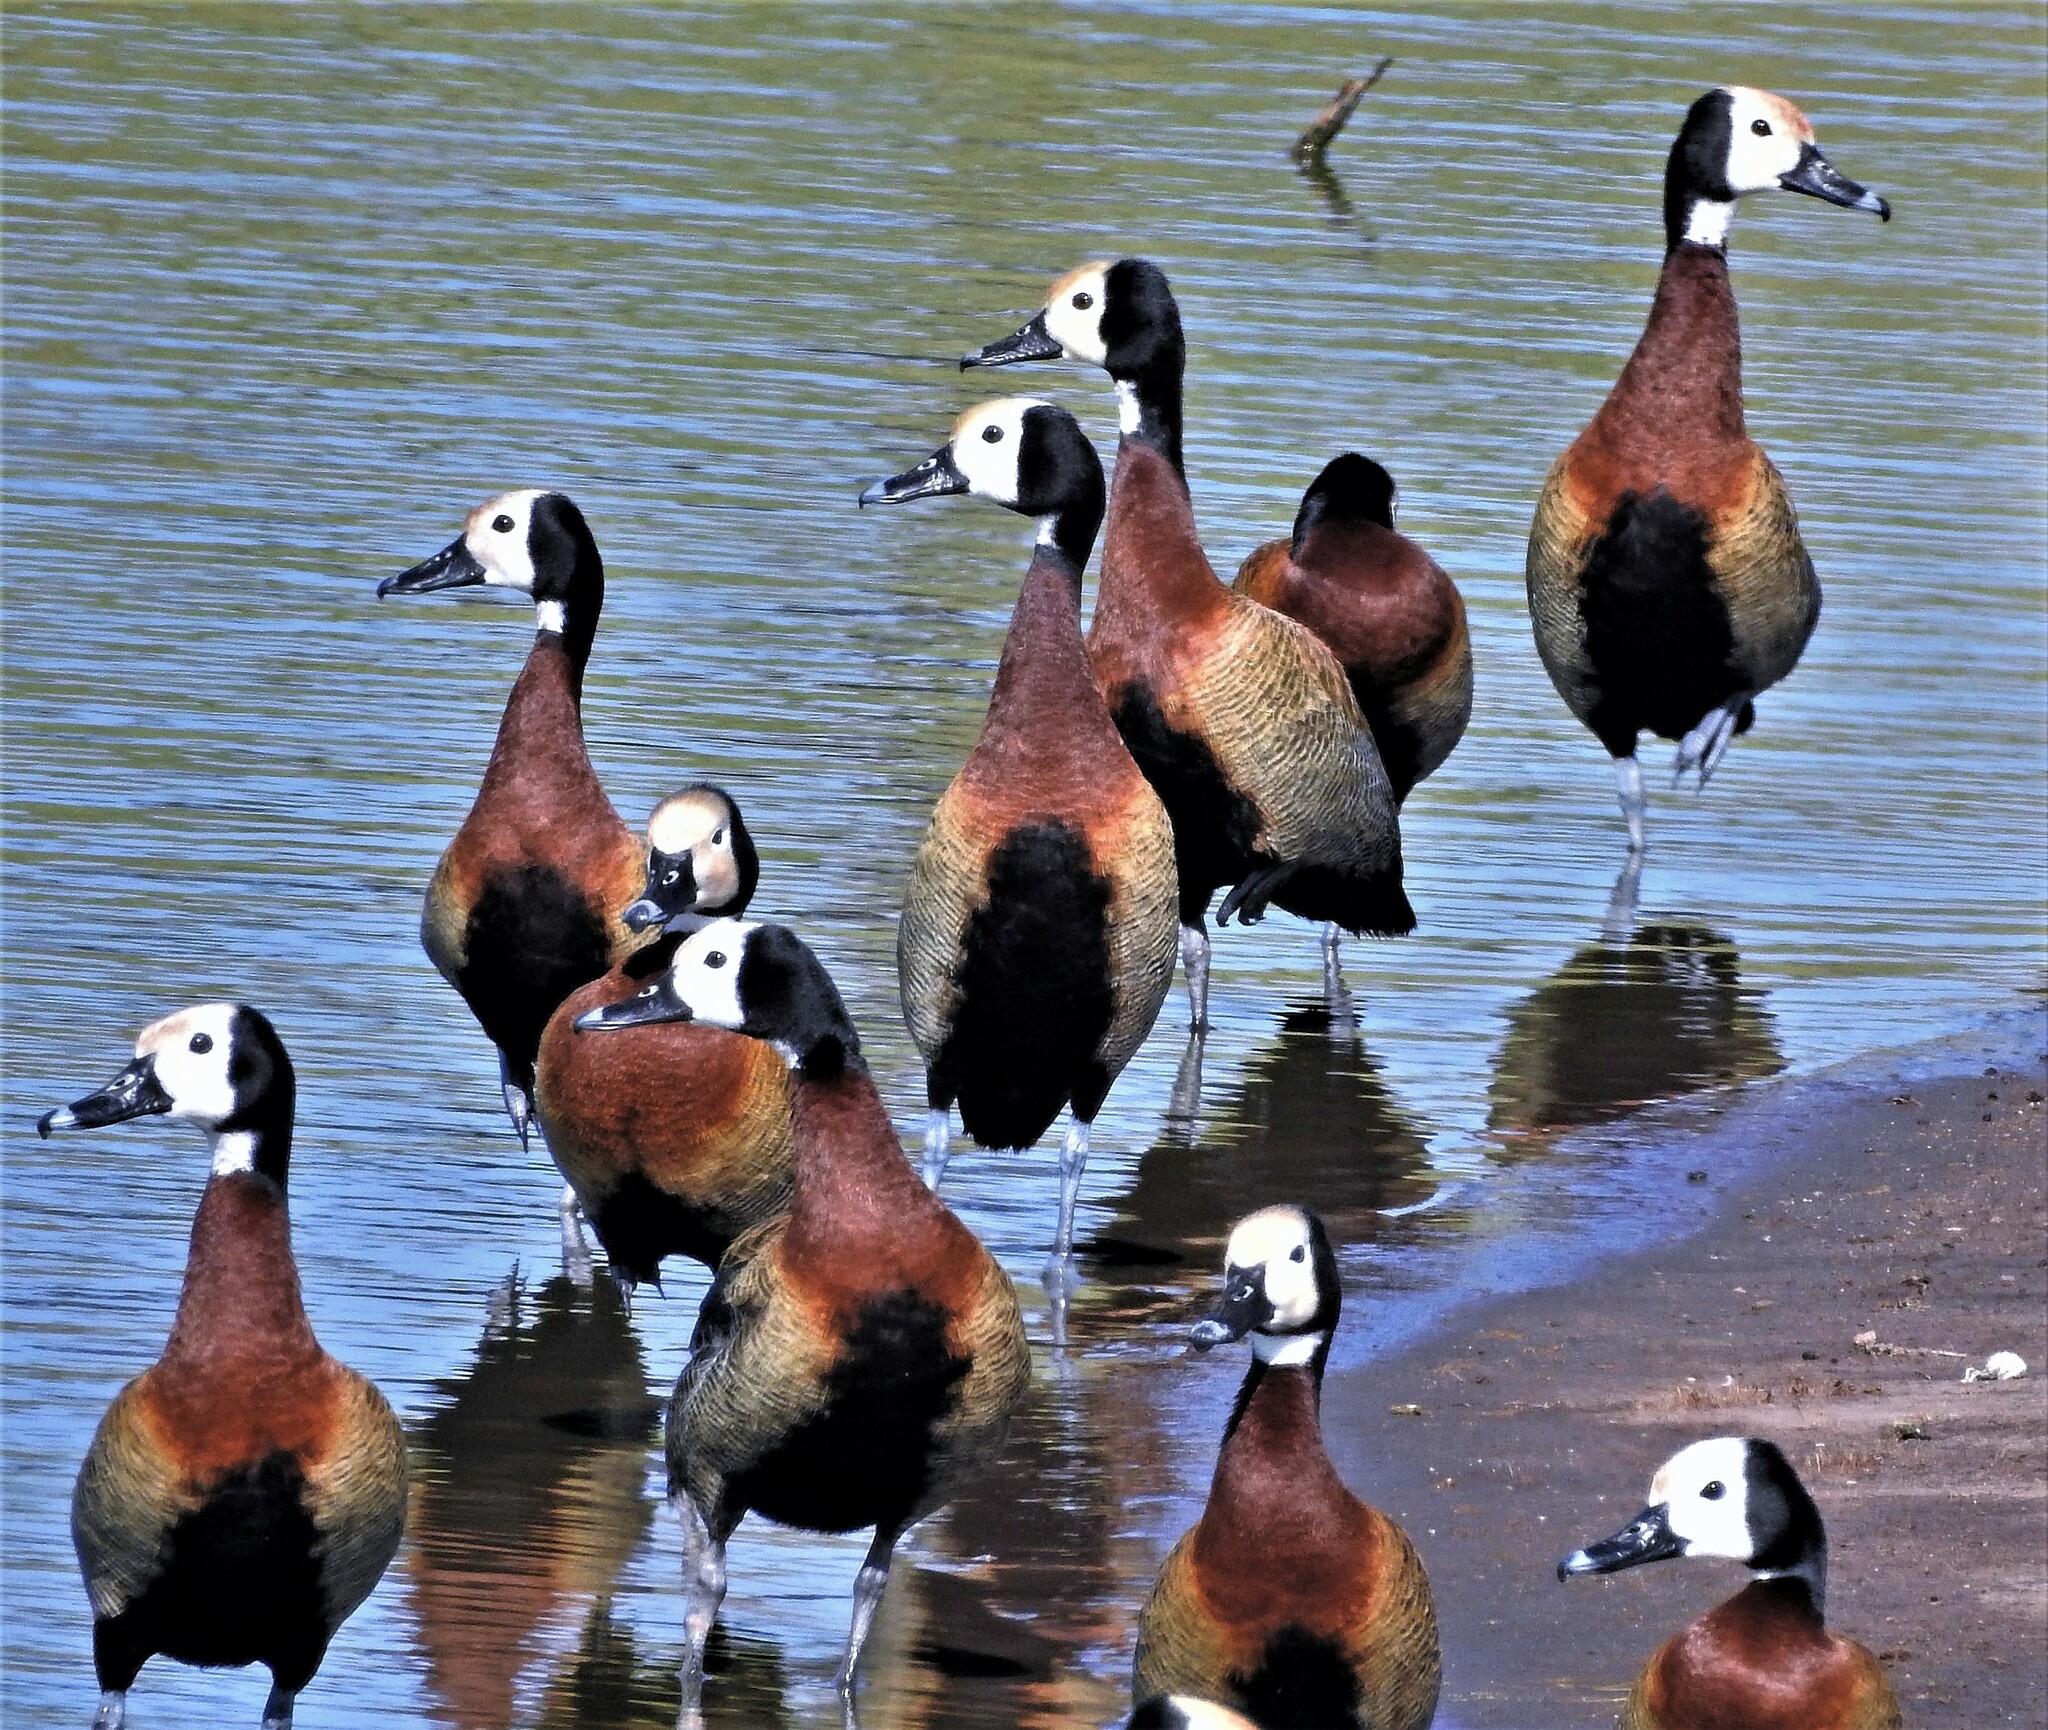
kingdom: Animalia
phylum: Chordata
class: Aves
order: Anseriformes
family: Anatidae
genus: Dendrocygna
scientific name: Dendrocygna viduata
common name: White-faced whistling duck
